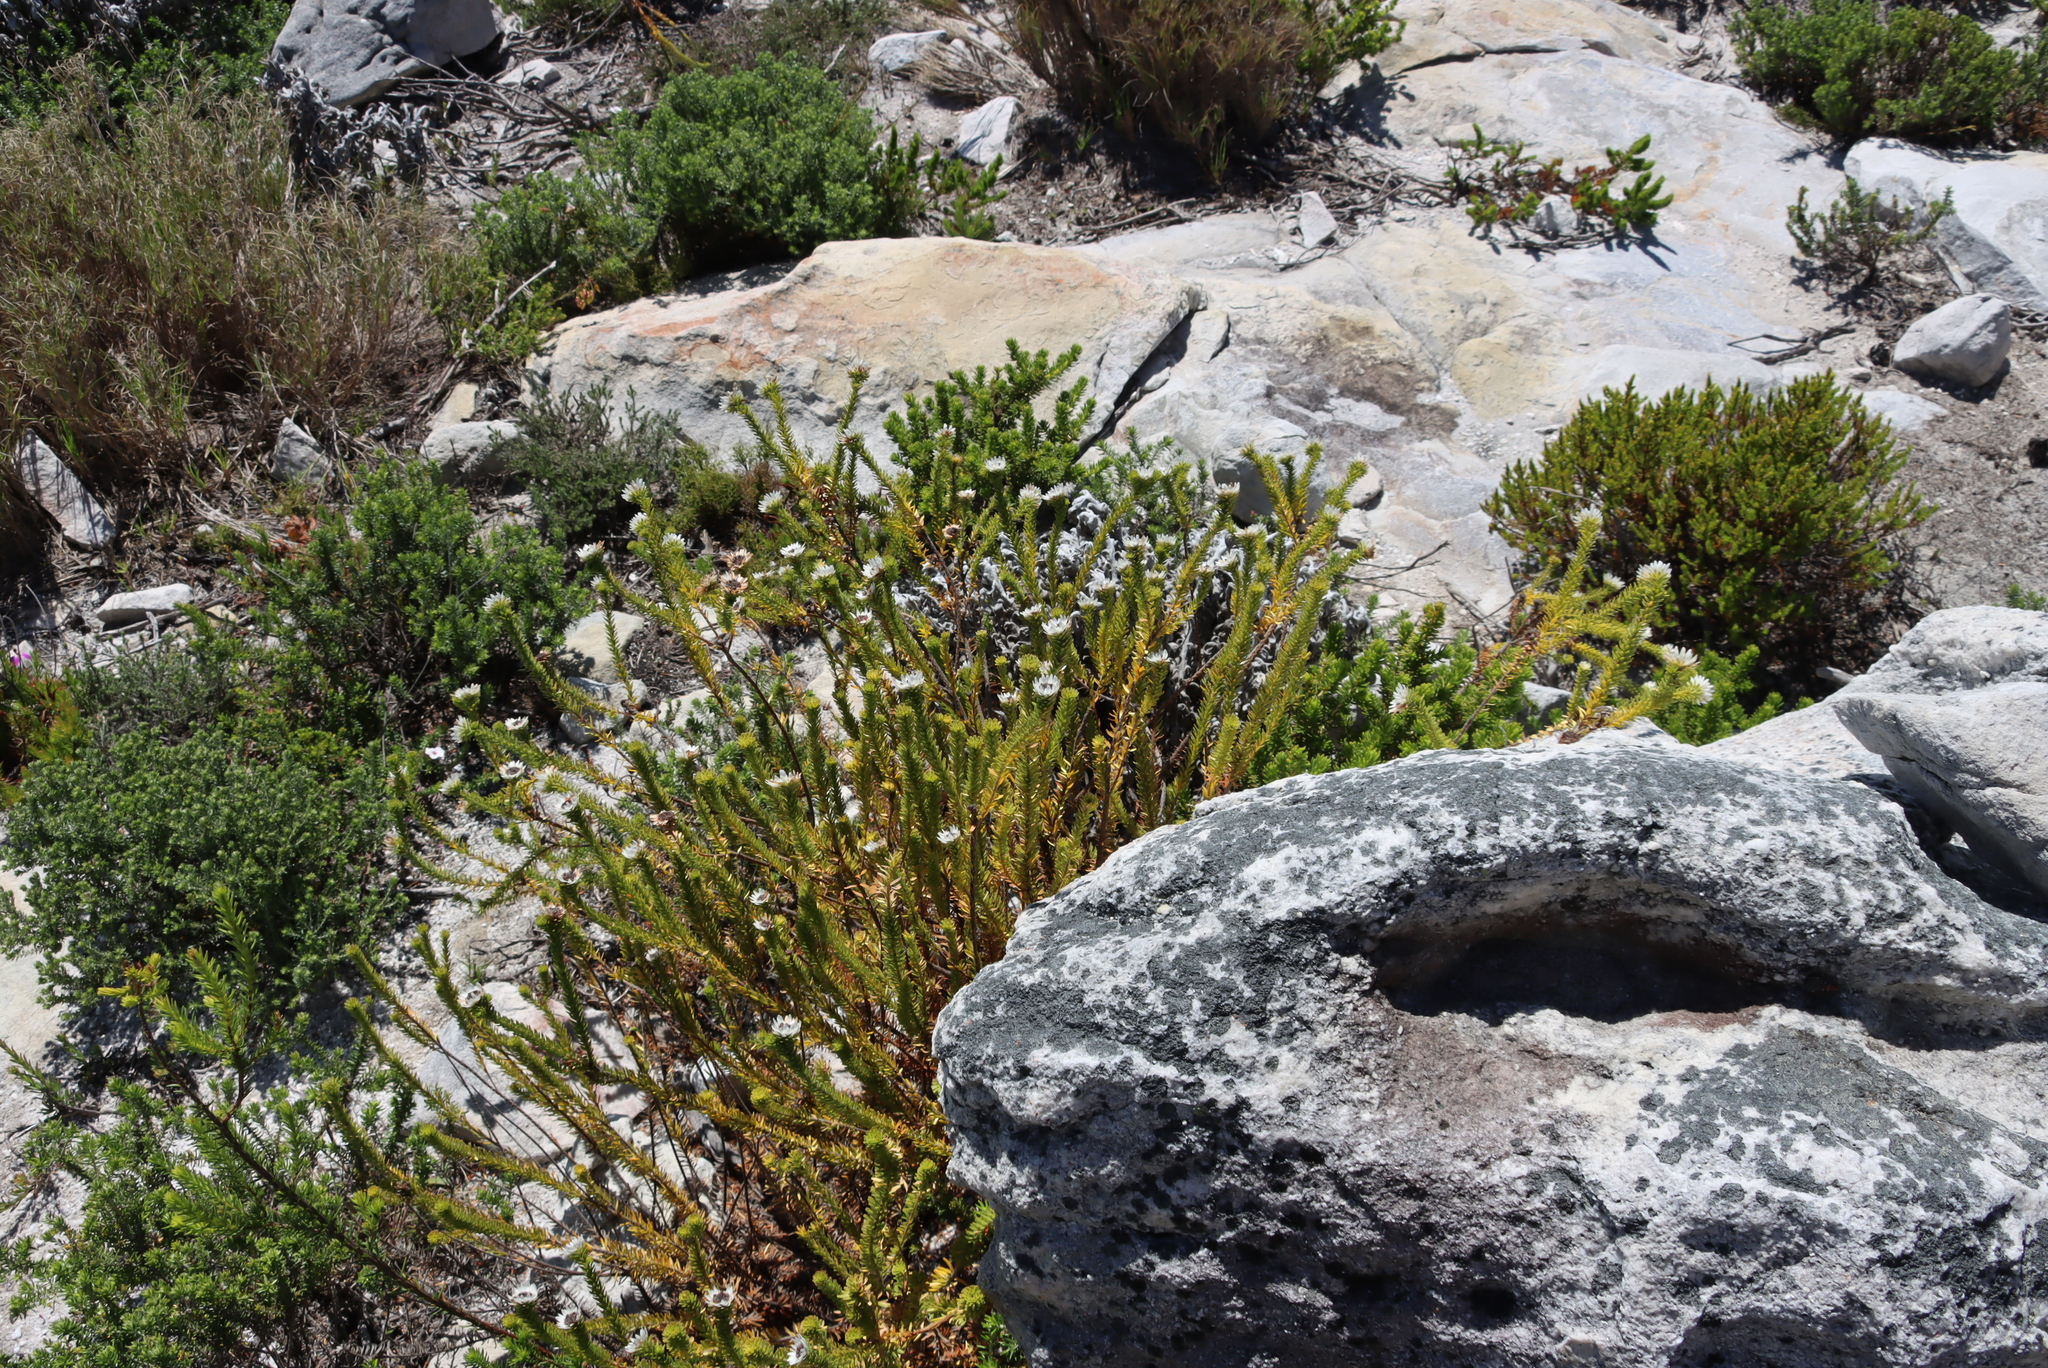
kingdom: Plantae
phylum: Tracheophyta
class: Magnoliopsida
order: Bruniales
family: Bruniaceae
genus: Staavia
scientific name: Staavia dodii
